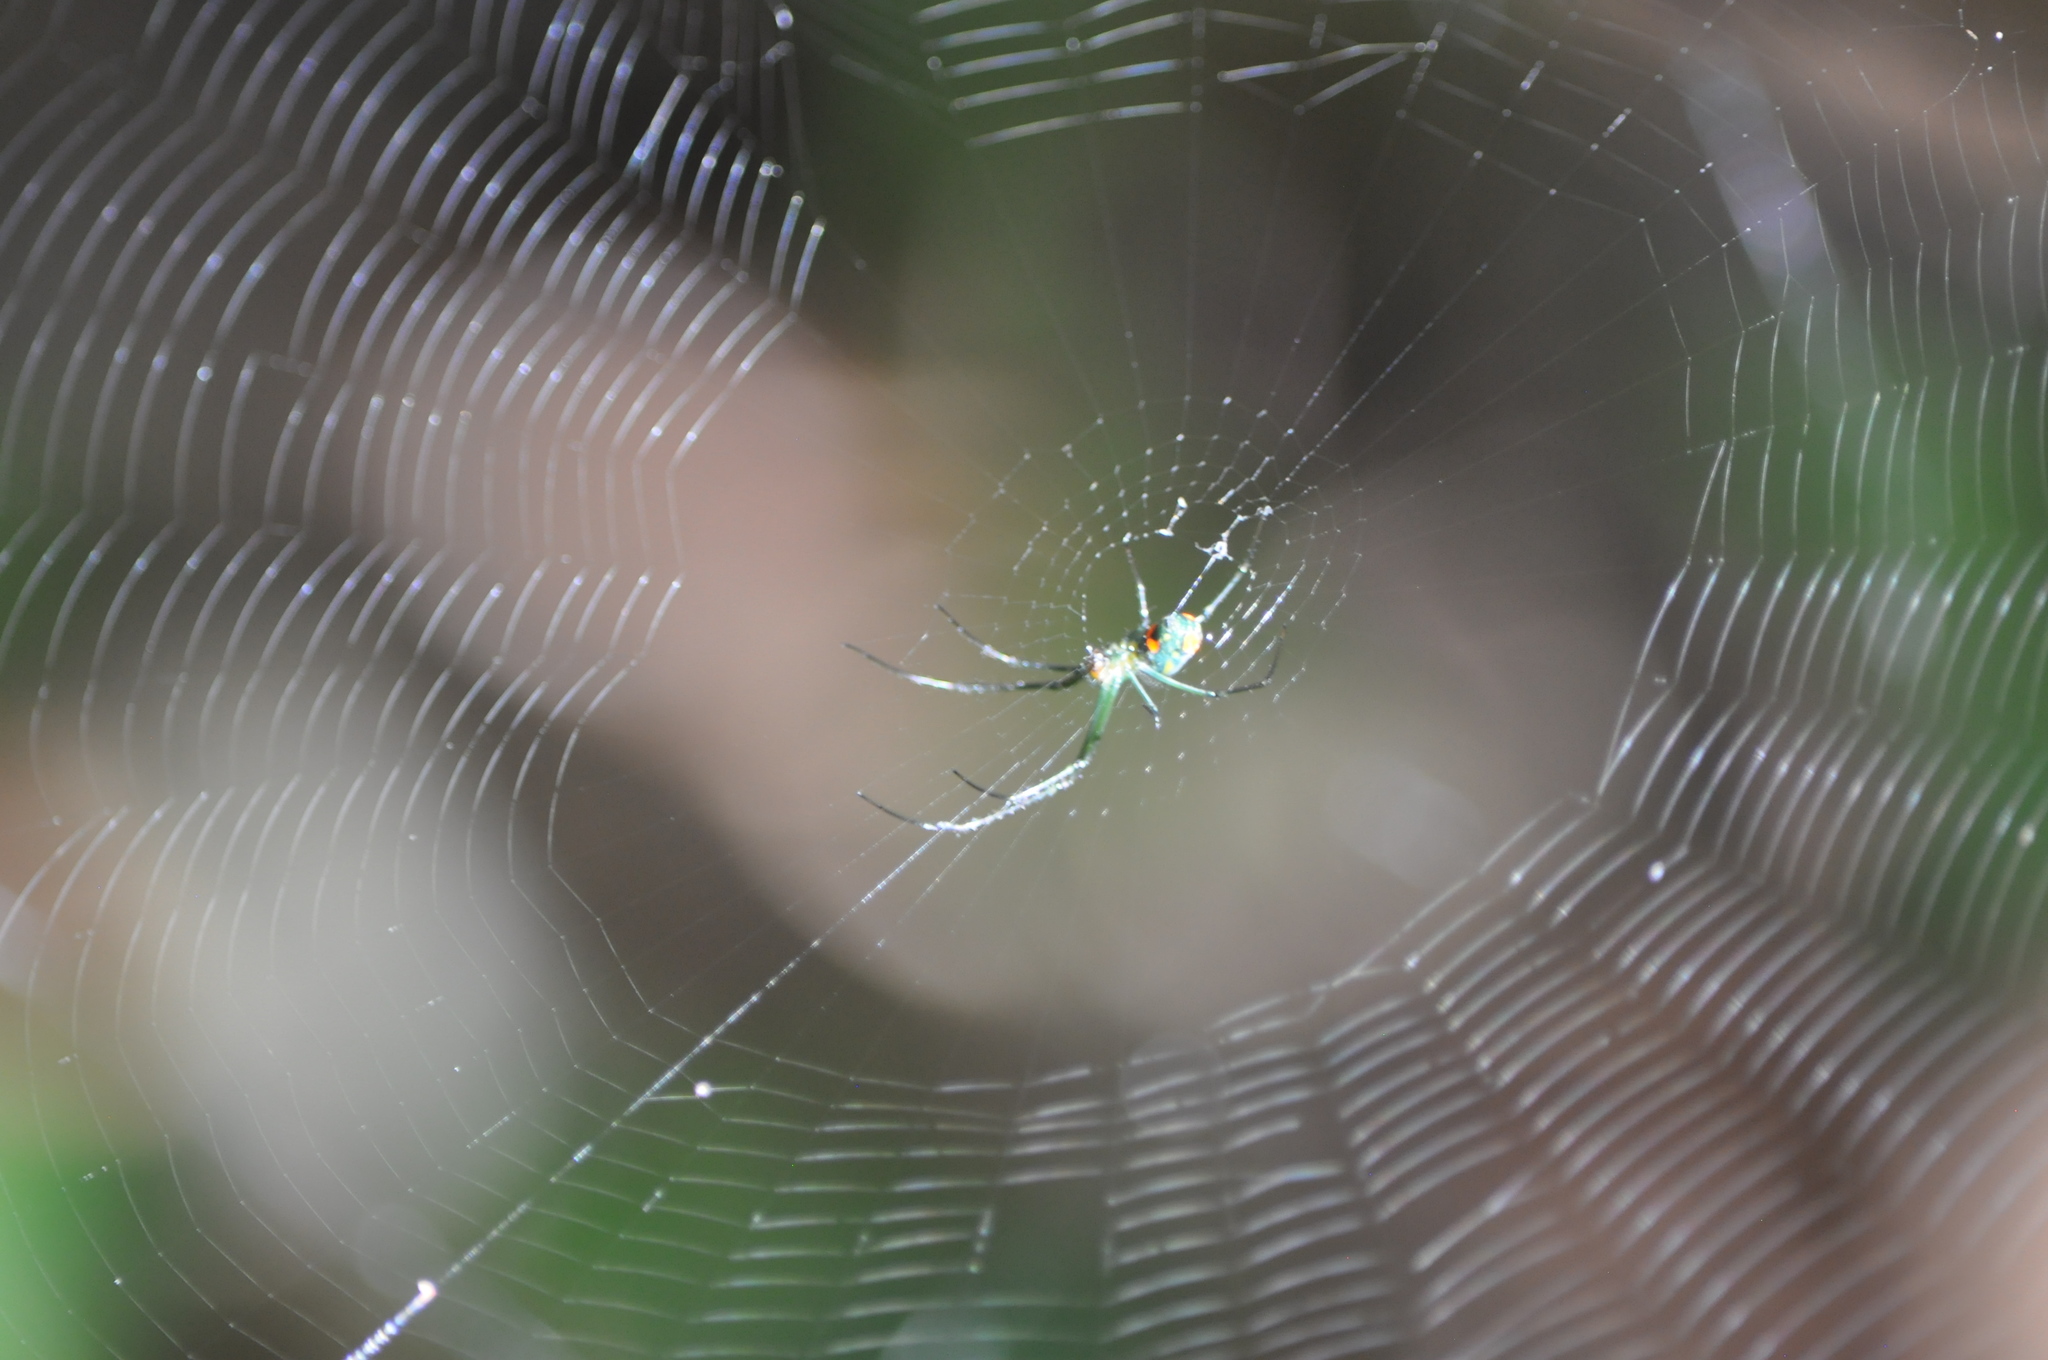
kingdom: Animalia
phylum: Arthropoda
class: Arachnida
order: Araneae
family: Tetragnathidae
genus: Leucauge
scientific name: Leucauge argyrobapta
